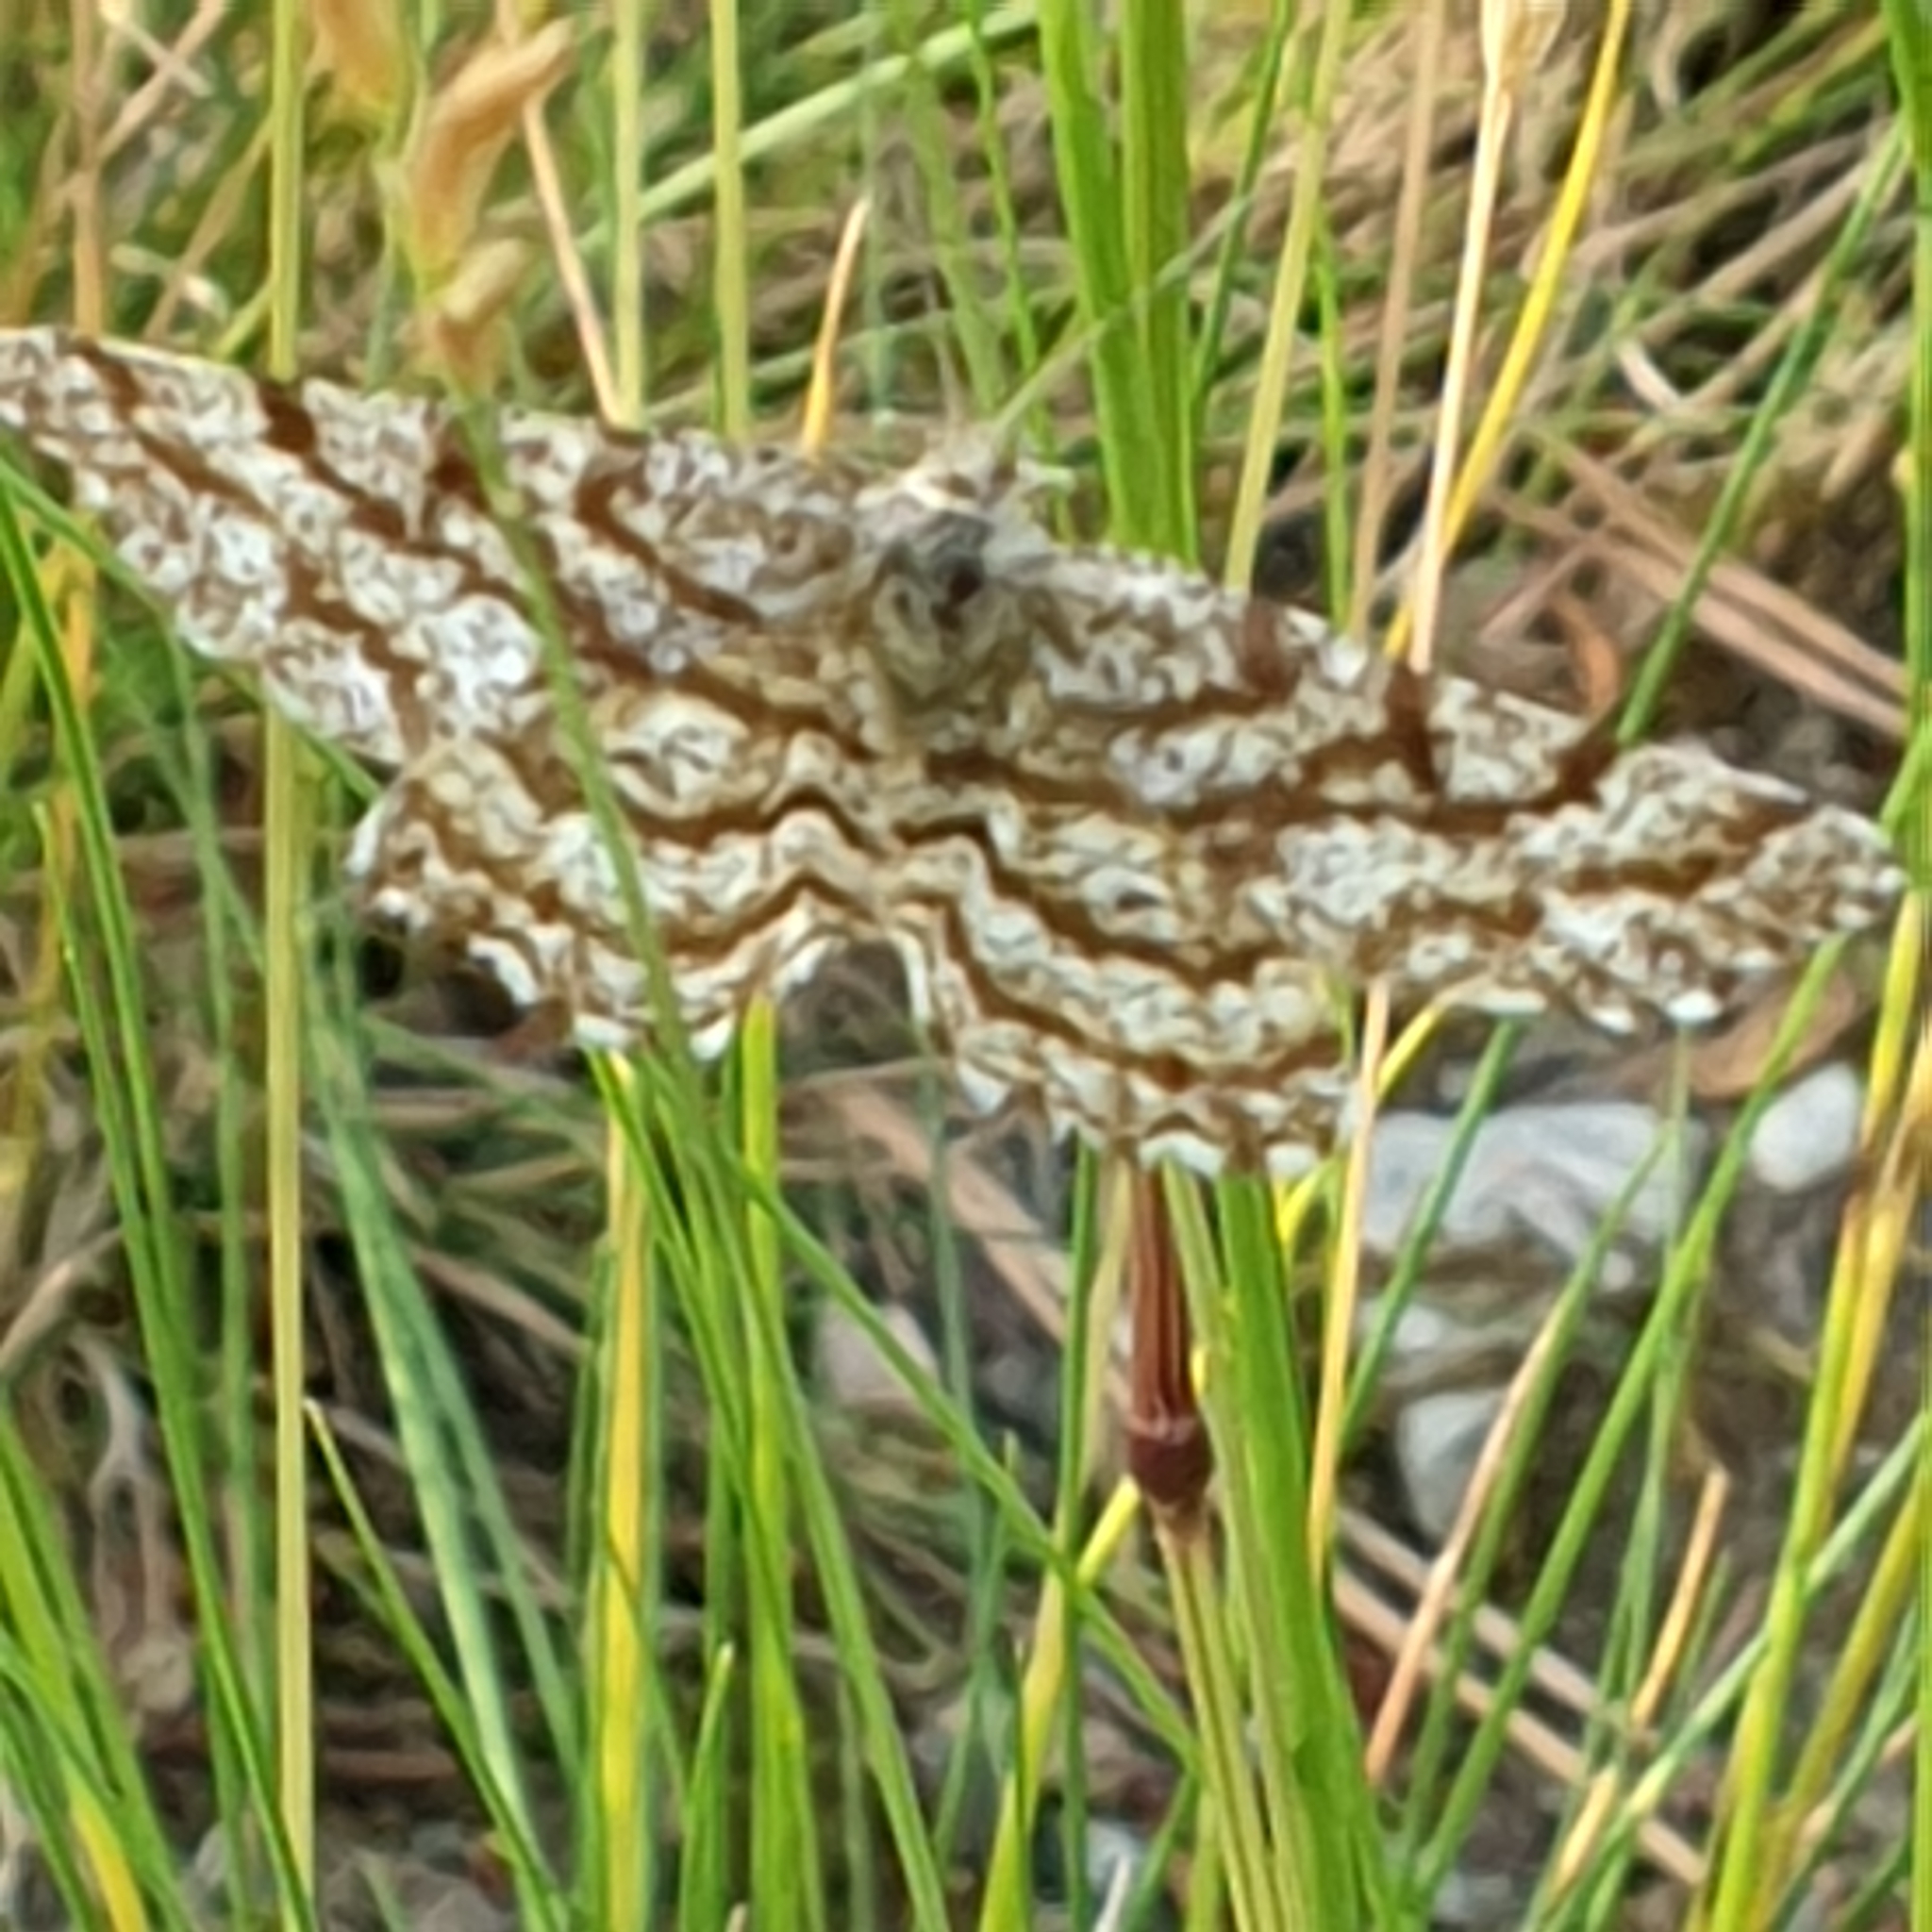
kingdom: Animalia
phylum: Arthropoda
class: Insecta
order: Lepidoptera
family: Geometridae
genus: Ematurga
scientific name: Ematurga atomaria
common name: Common heath
